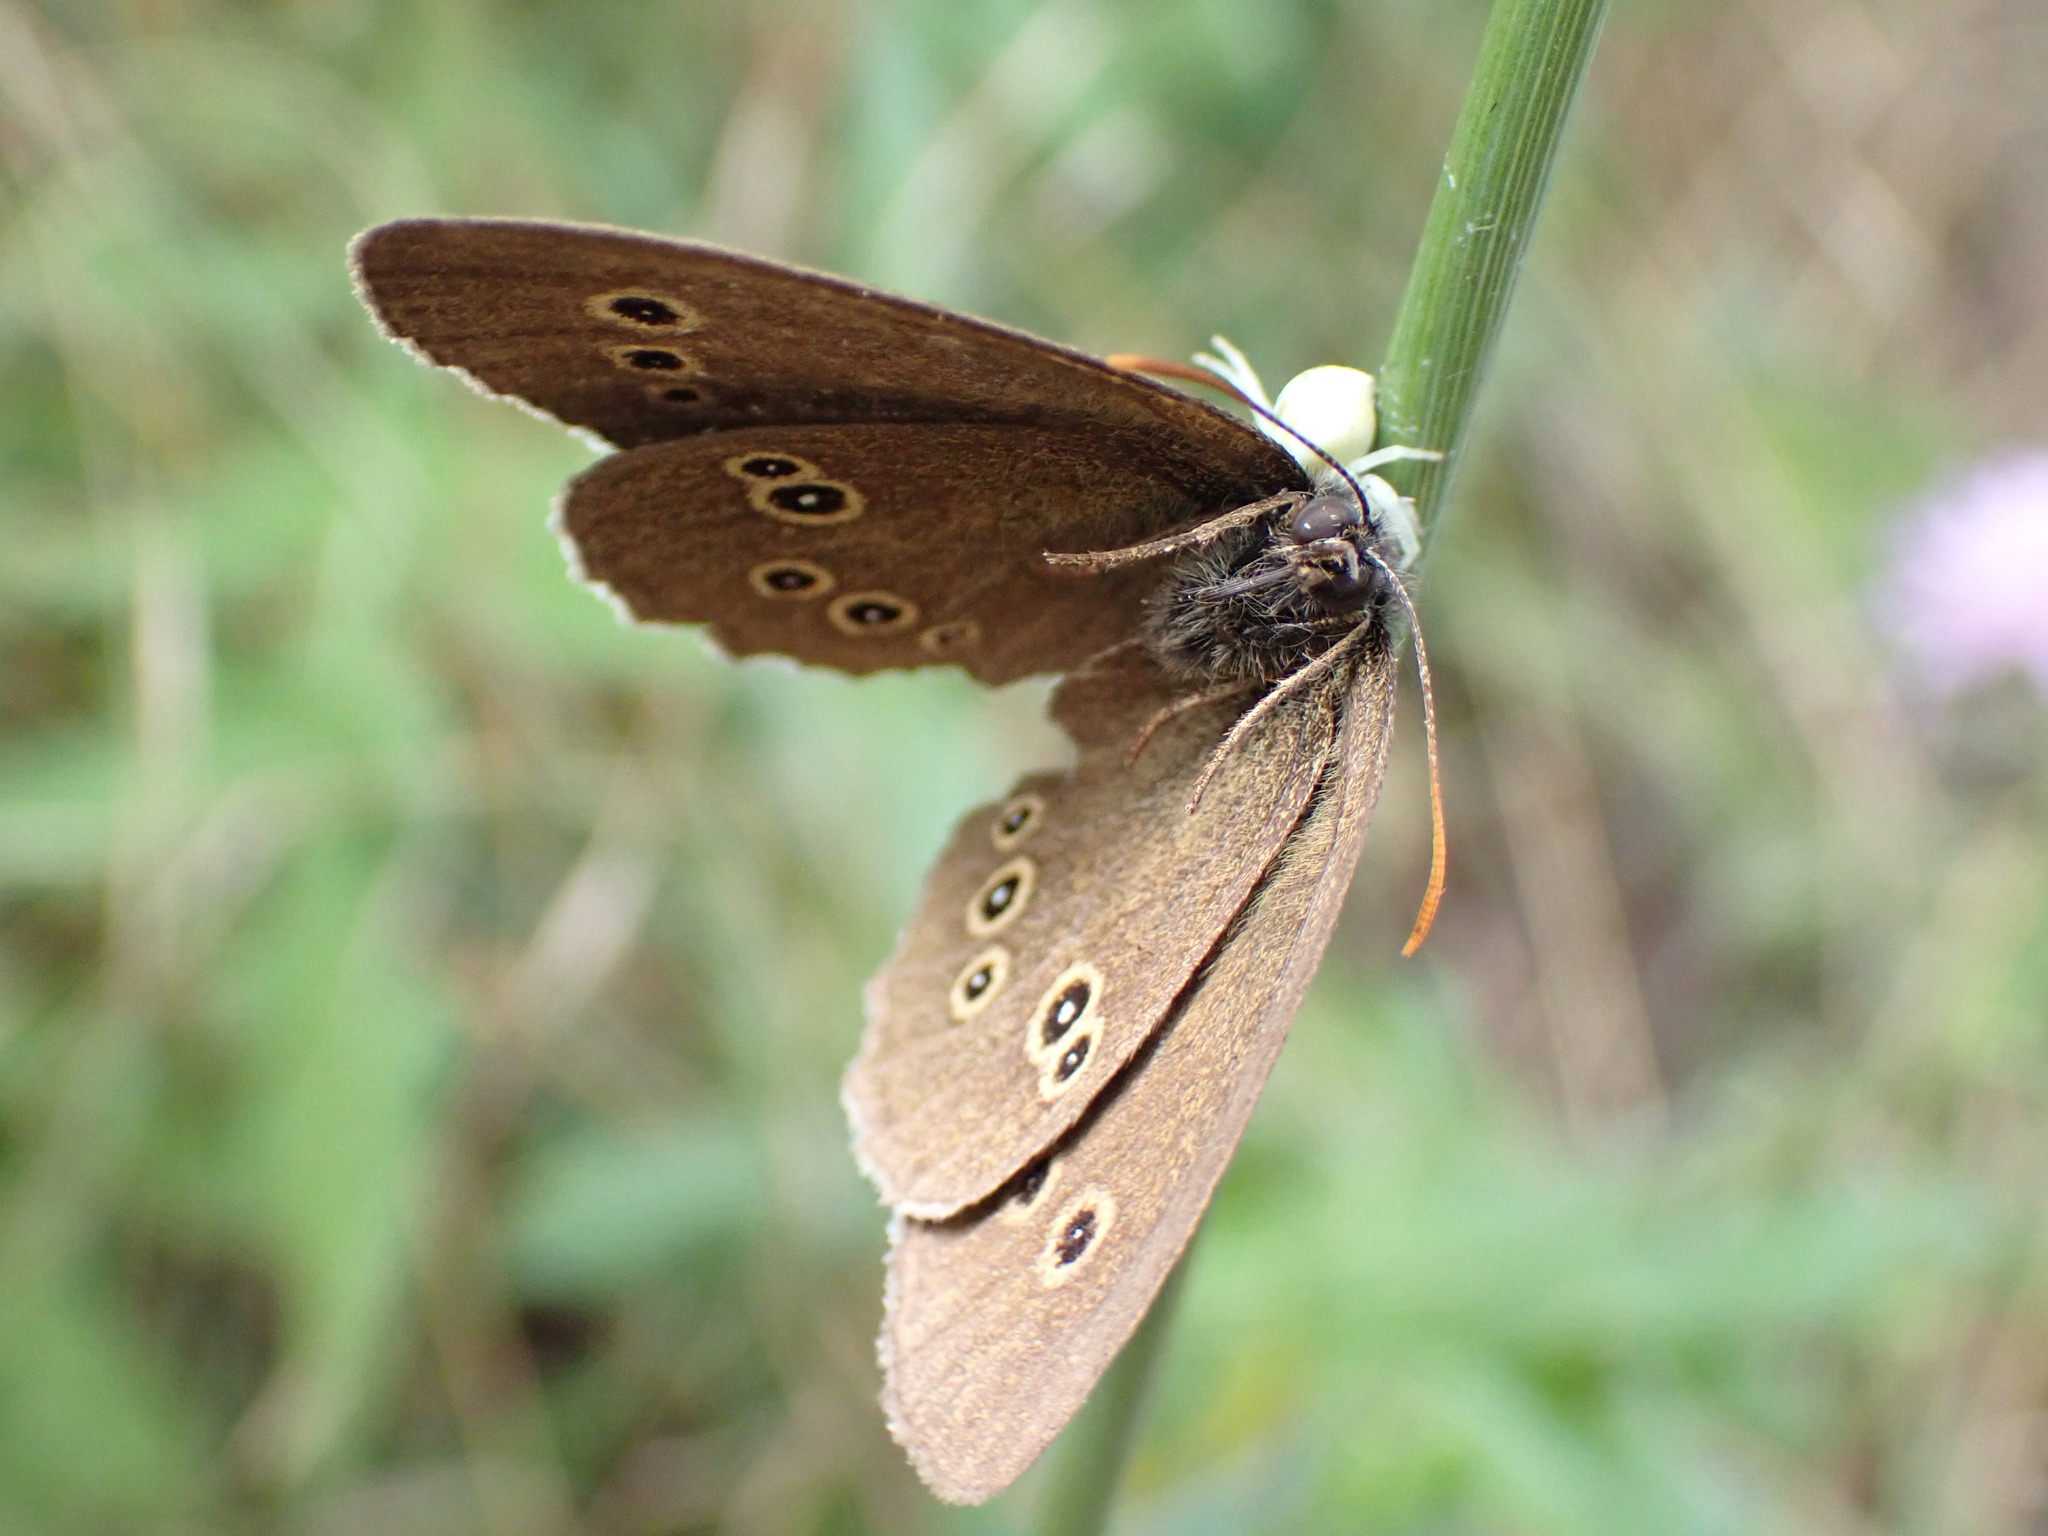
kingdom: Animalia
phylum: Arthropoda
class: Insecta
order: Lepidoptera
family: Nymphalidae
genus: Aphantopus
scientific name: Aphantopus hyperantus
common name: Ringlet
